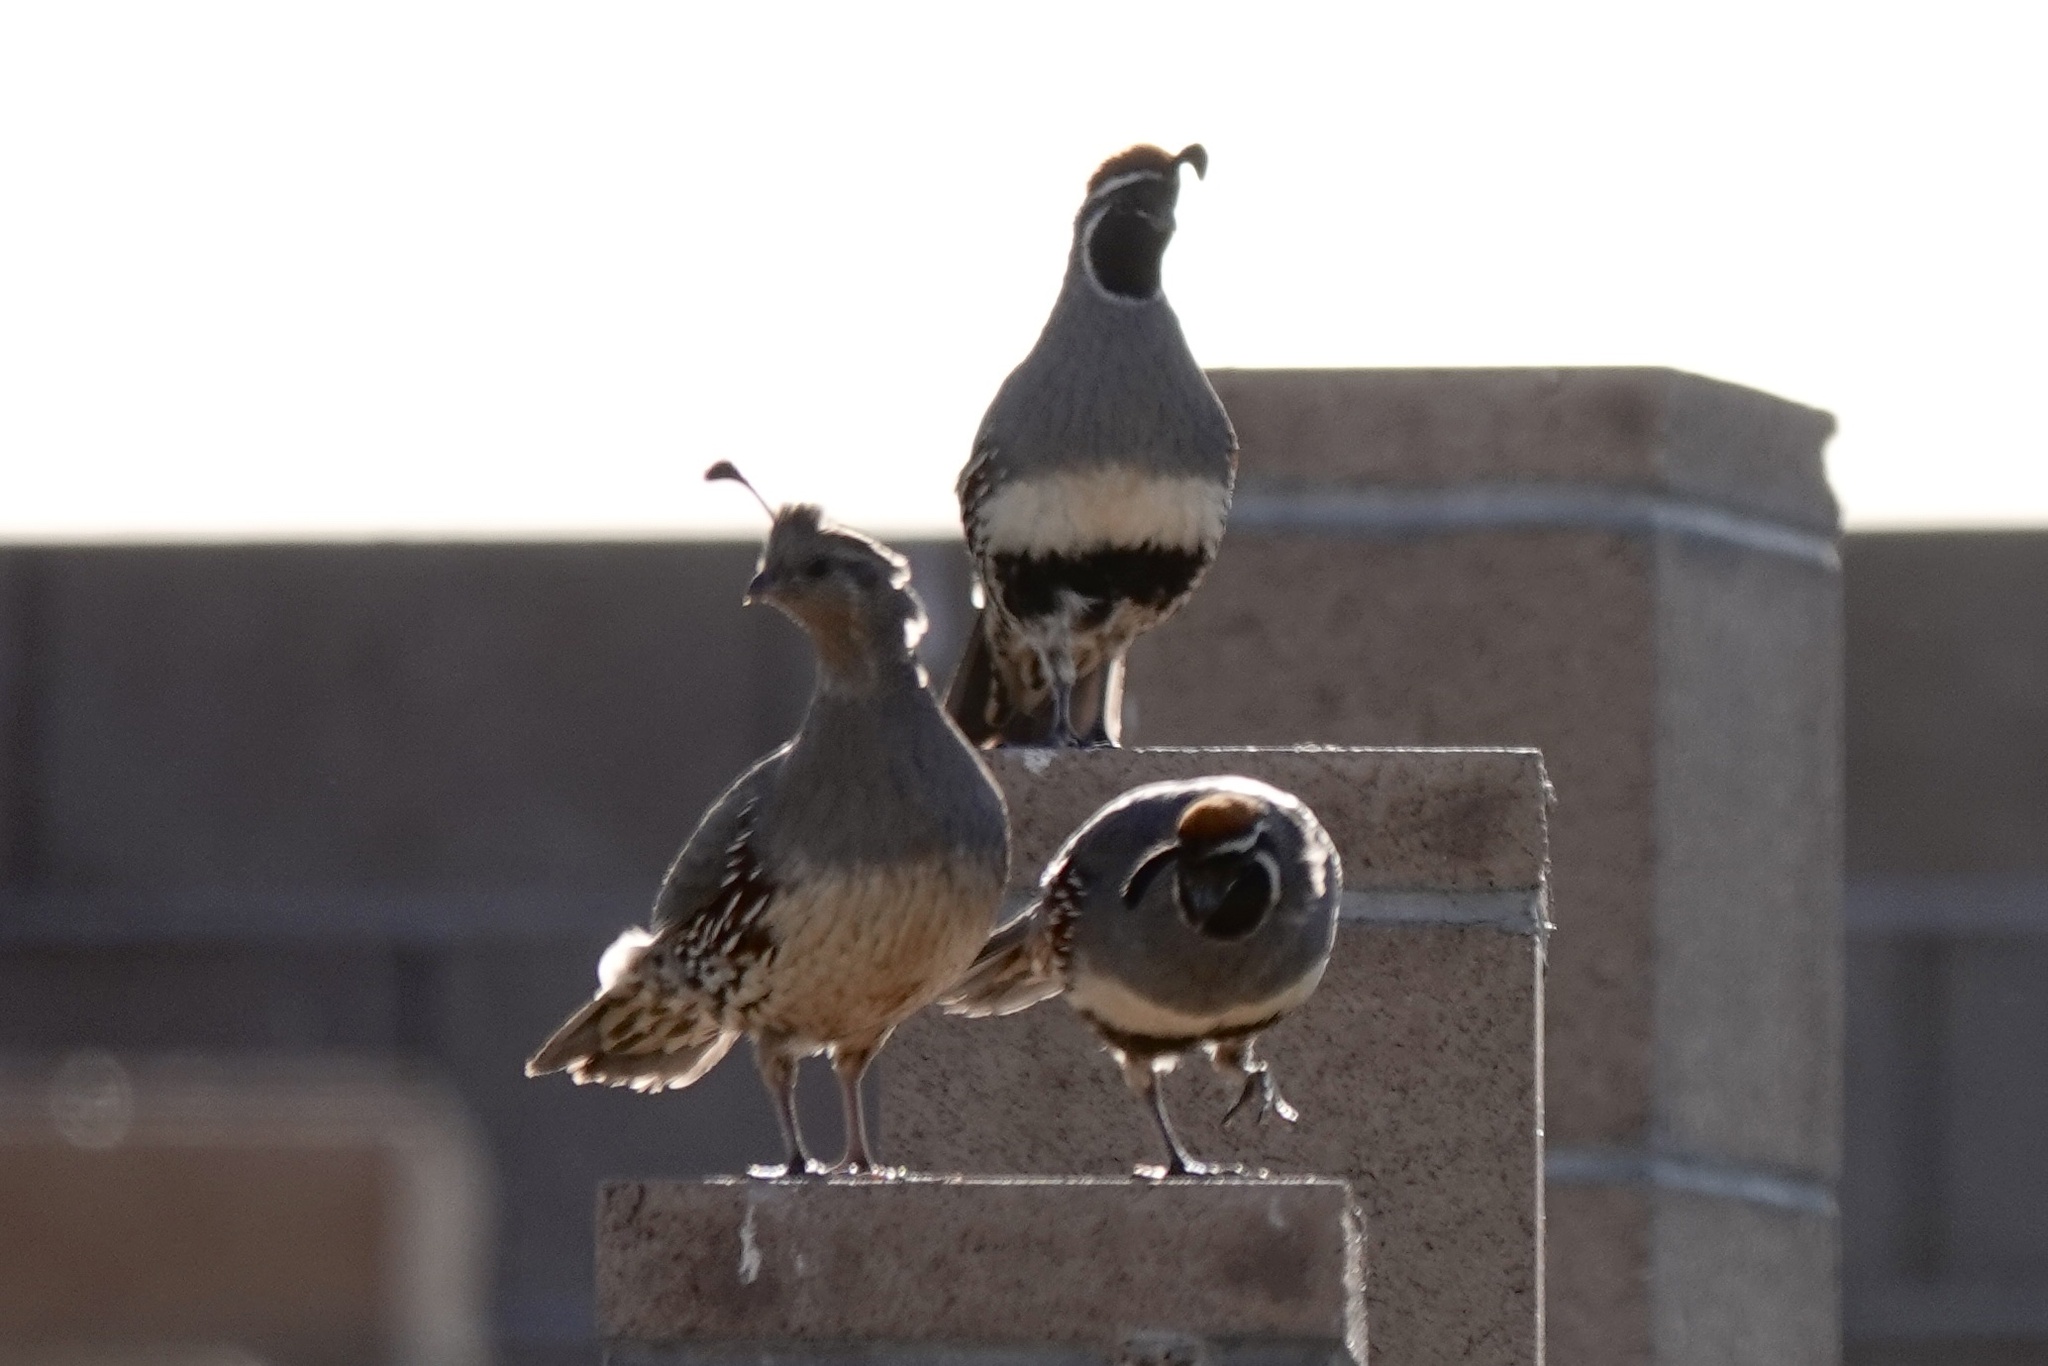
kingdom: Animalia
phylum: Chordata
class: Aves
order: Galliformes
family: Odontophoridae
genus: Callipepla
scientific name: Callipepla gambelii
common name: Gambel's quail
